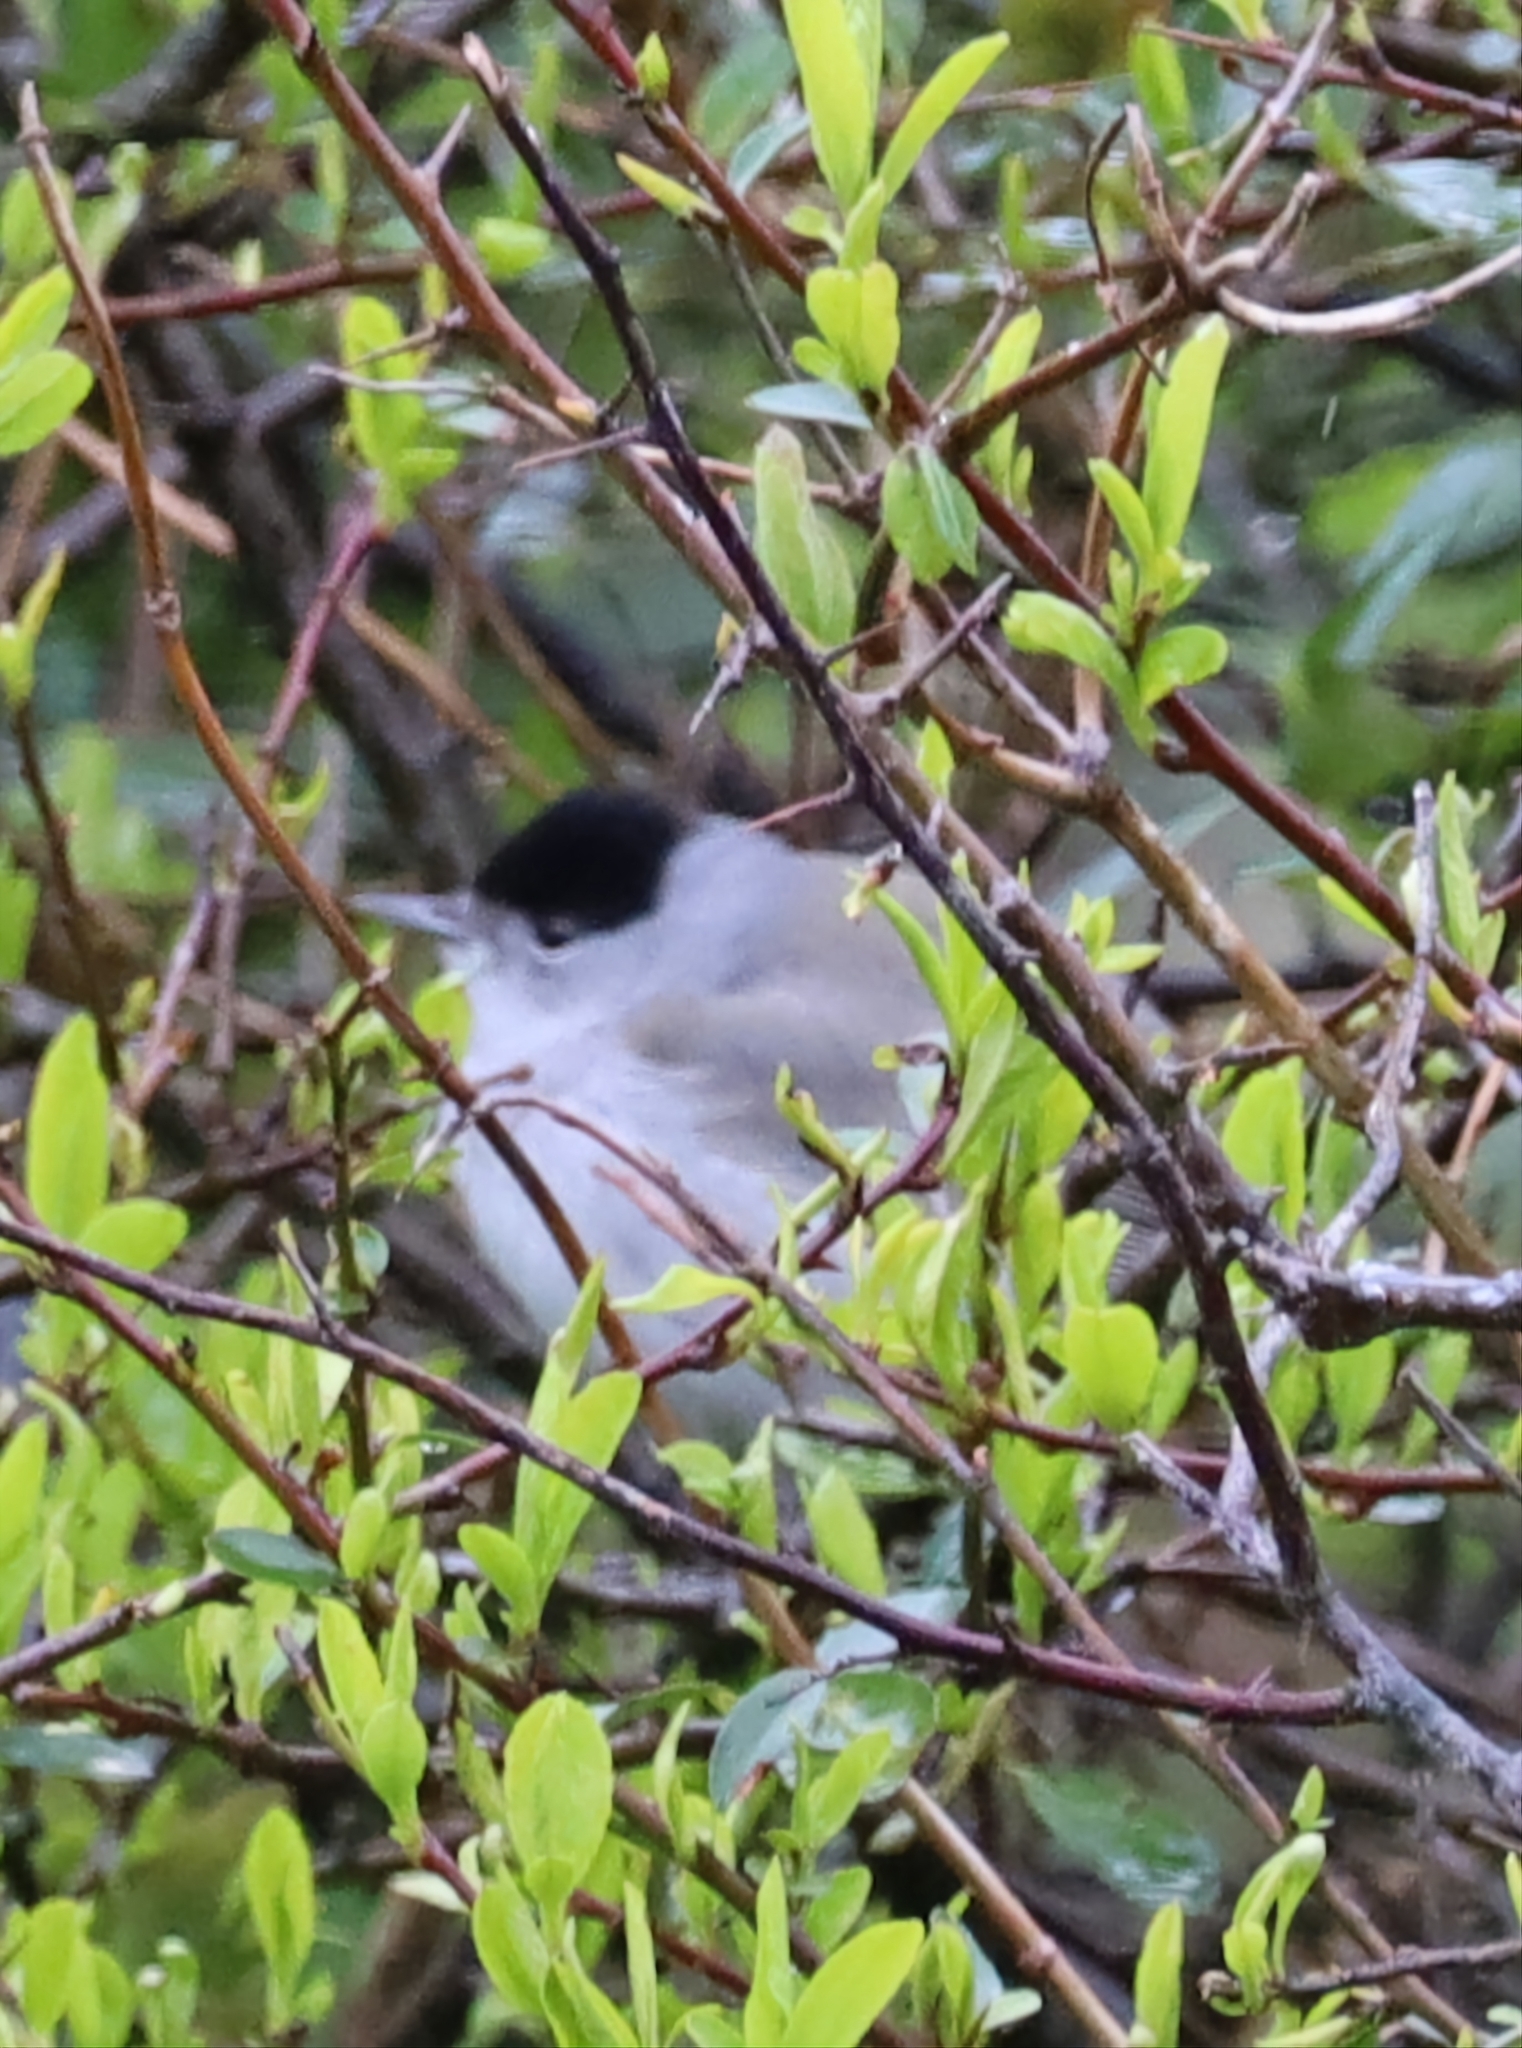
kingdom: Animalia
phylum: Chordata
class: Aves
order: Passeriformes
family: Sylviidae
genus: Sylvia
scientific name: Sylvia atricapilla
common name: Eurasian blackcap
